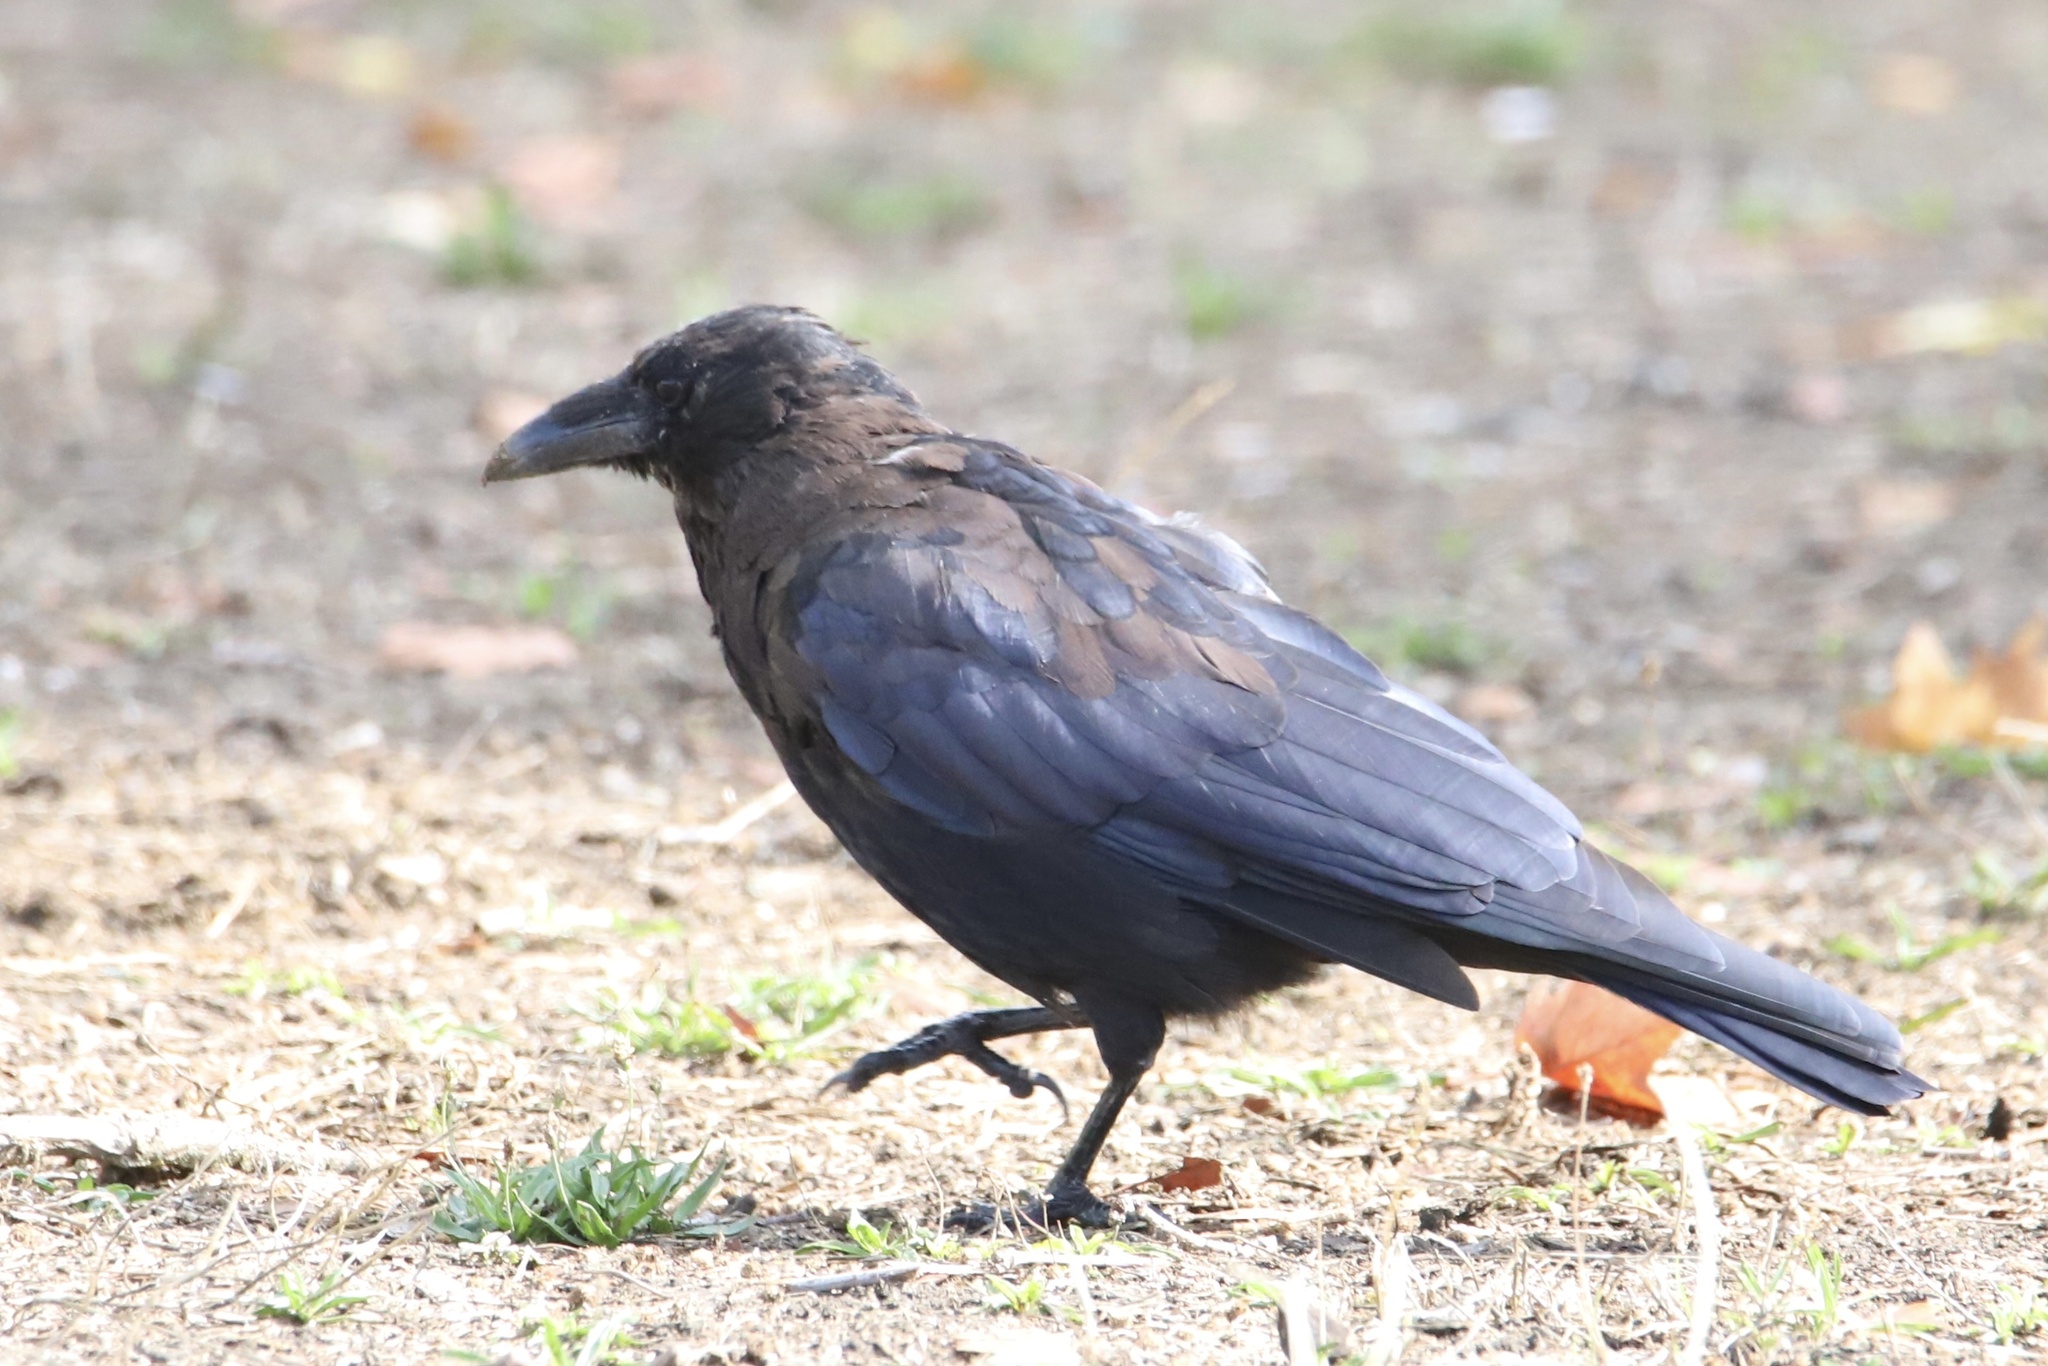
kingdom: Animalia
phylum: Chordata
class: Aves
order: Passeriformes
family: Corvidae
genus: Corvus
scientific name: Corvus corone
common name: Carrion crow
